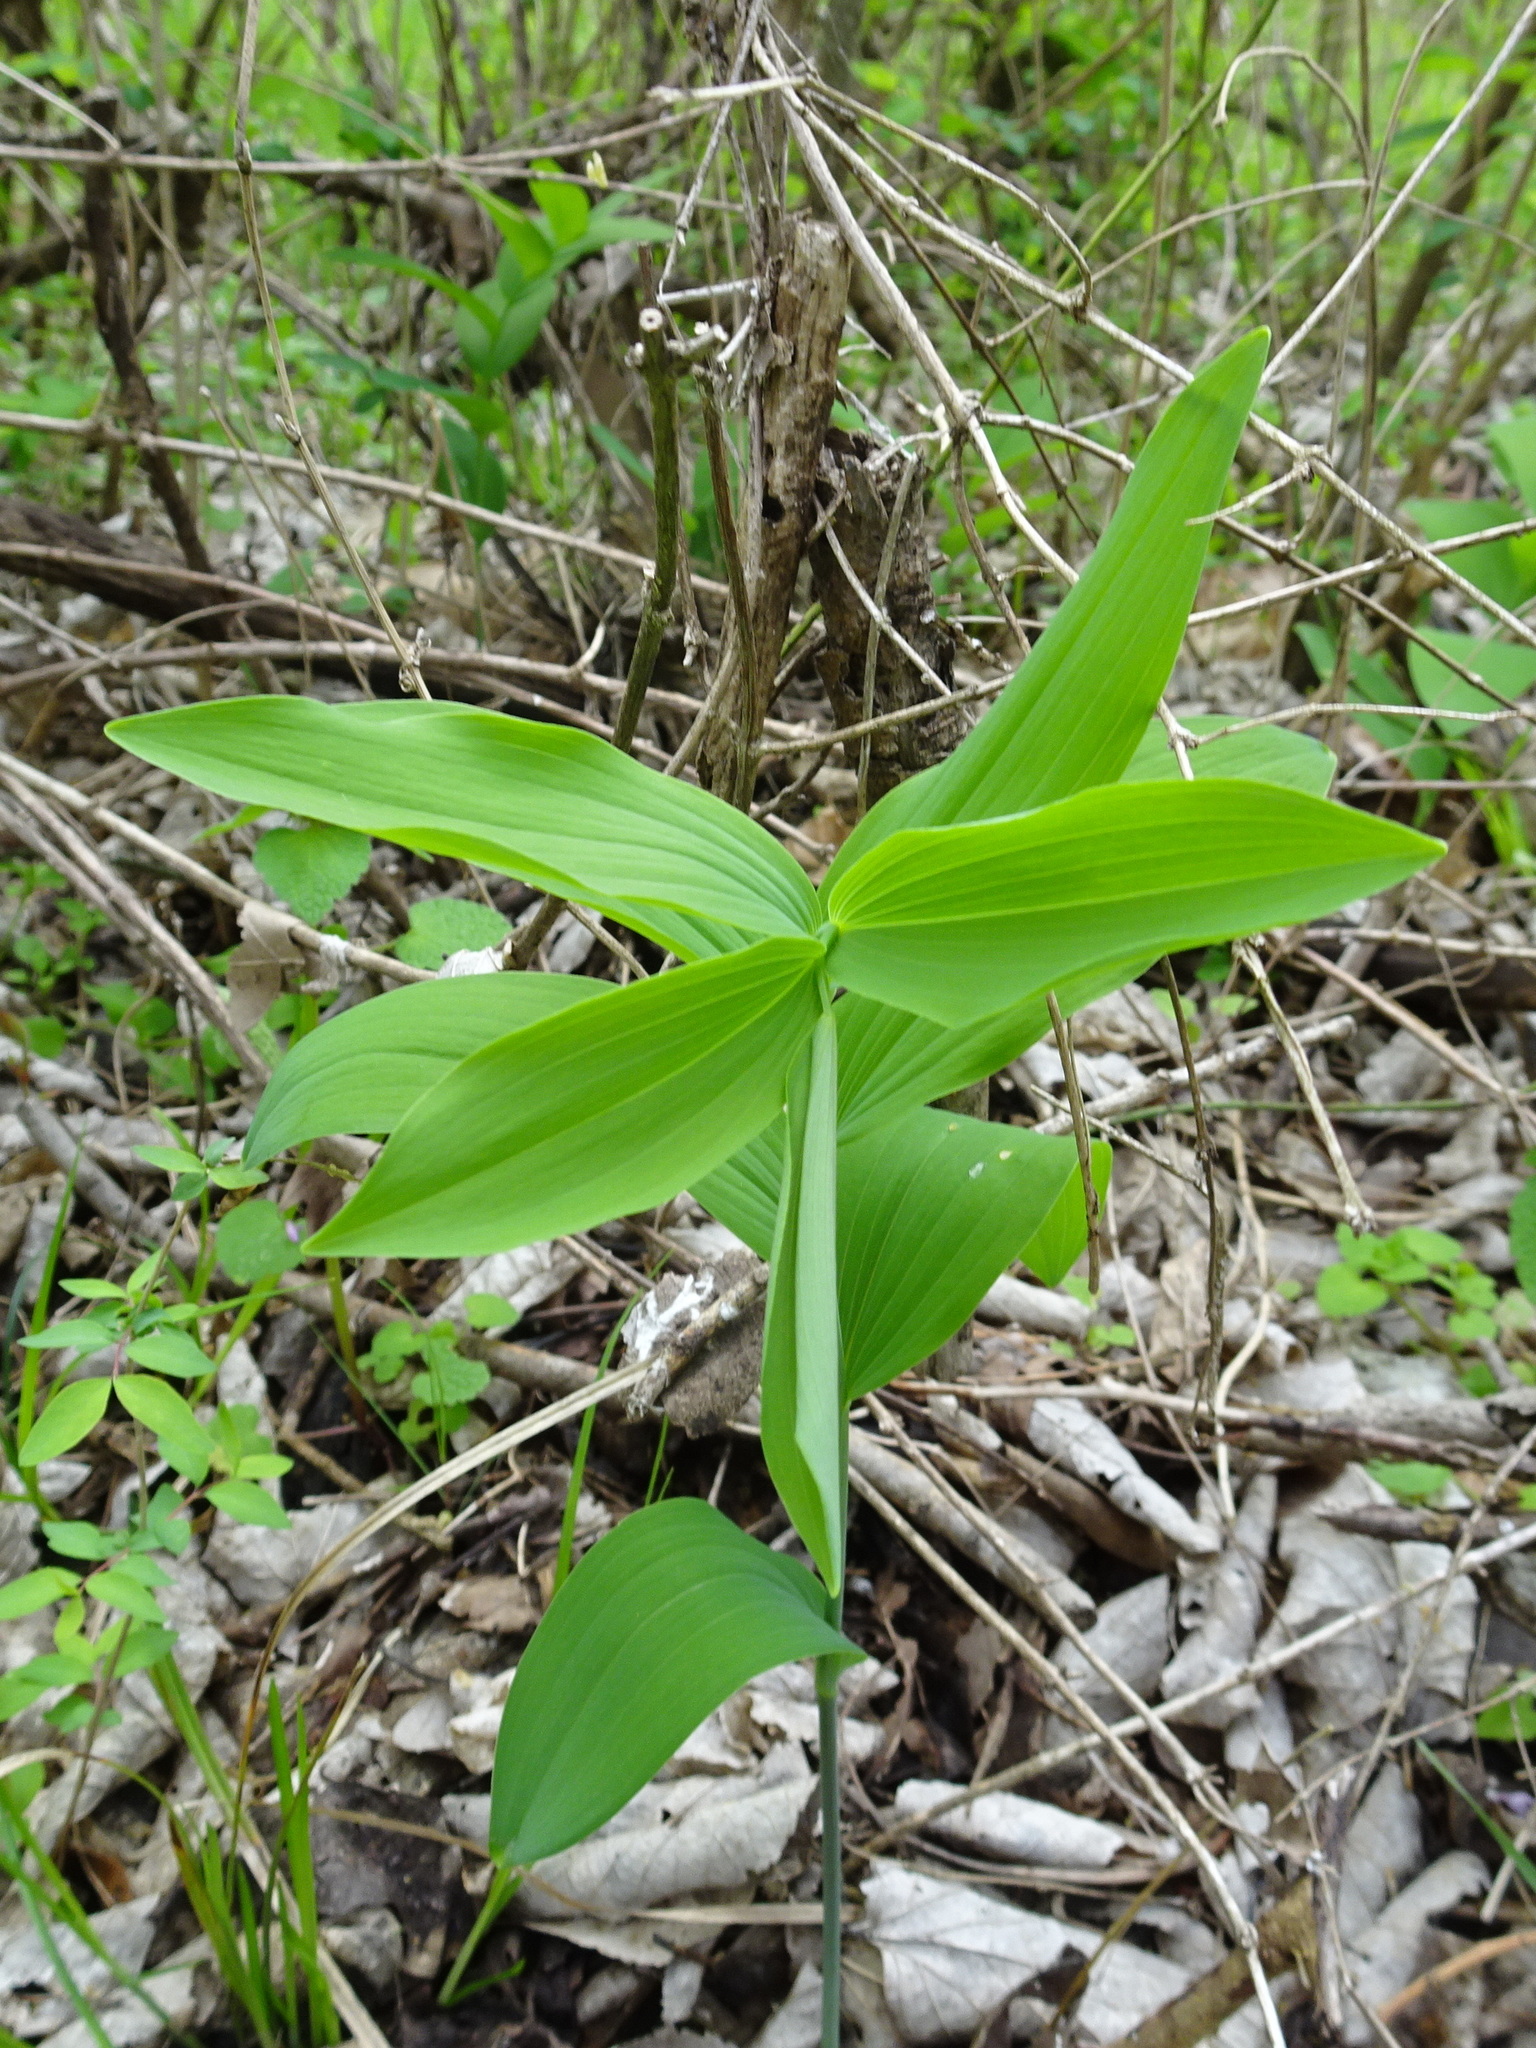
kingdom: Plantae
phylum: Tracheophyta
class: Liliopsida
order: Asparagales
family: Asparagaceae
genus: Polygonatum
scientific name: Polygonatum biflorum
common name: American solomon's-seal
